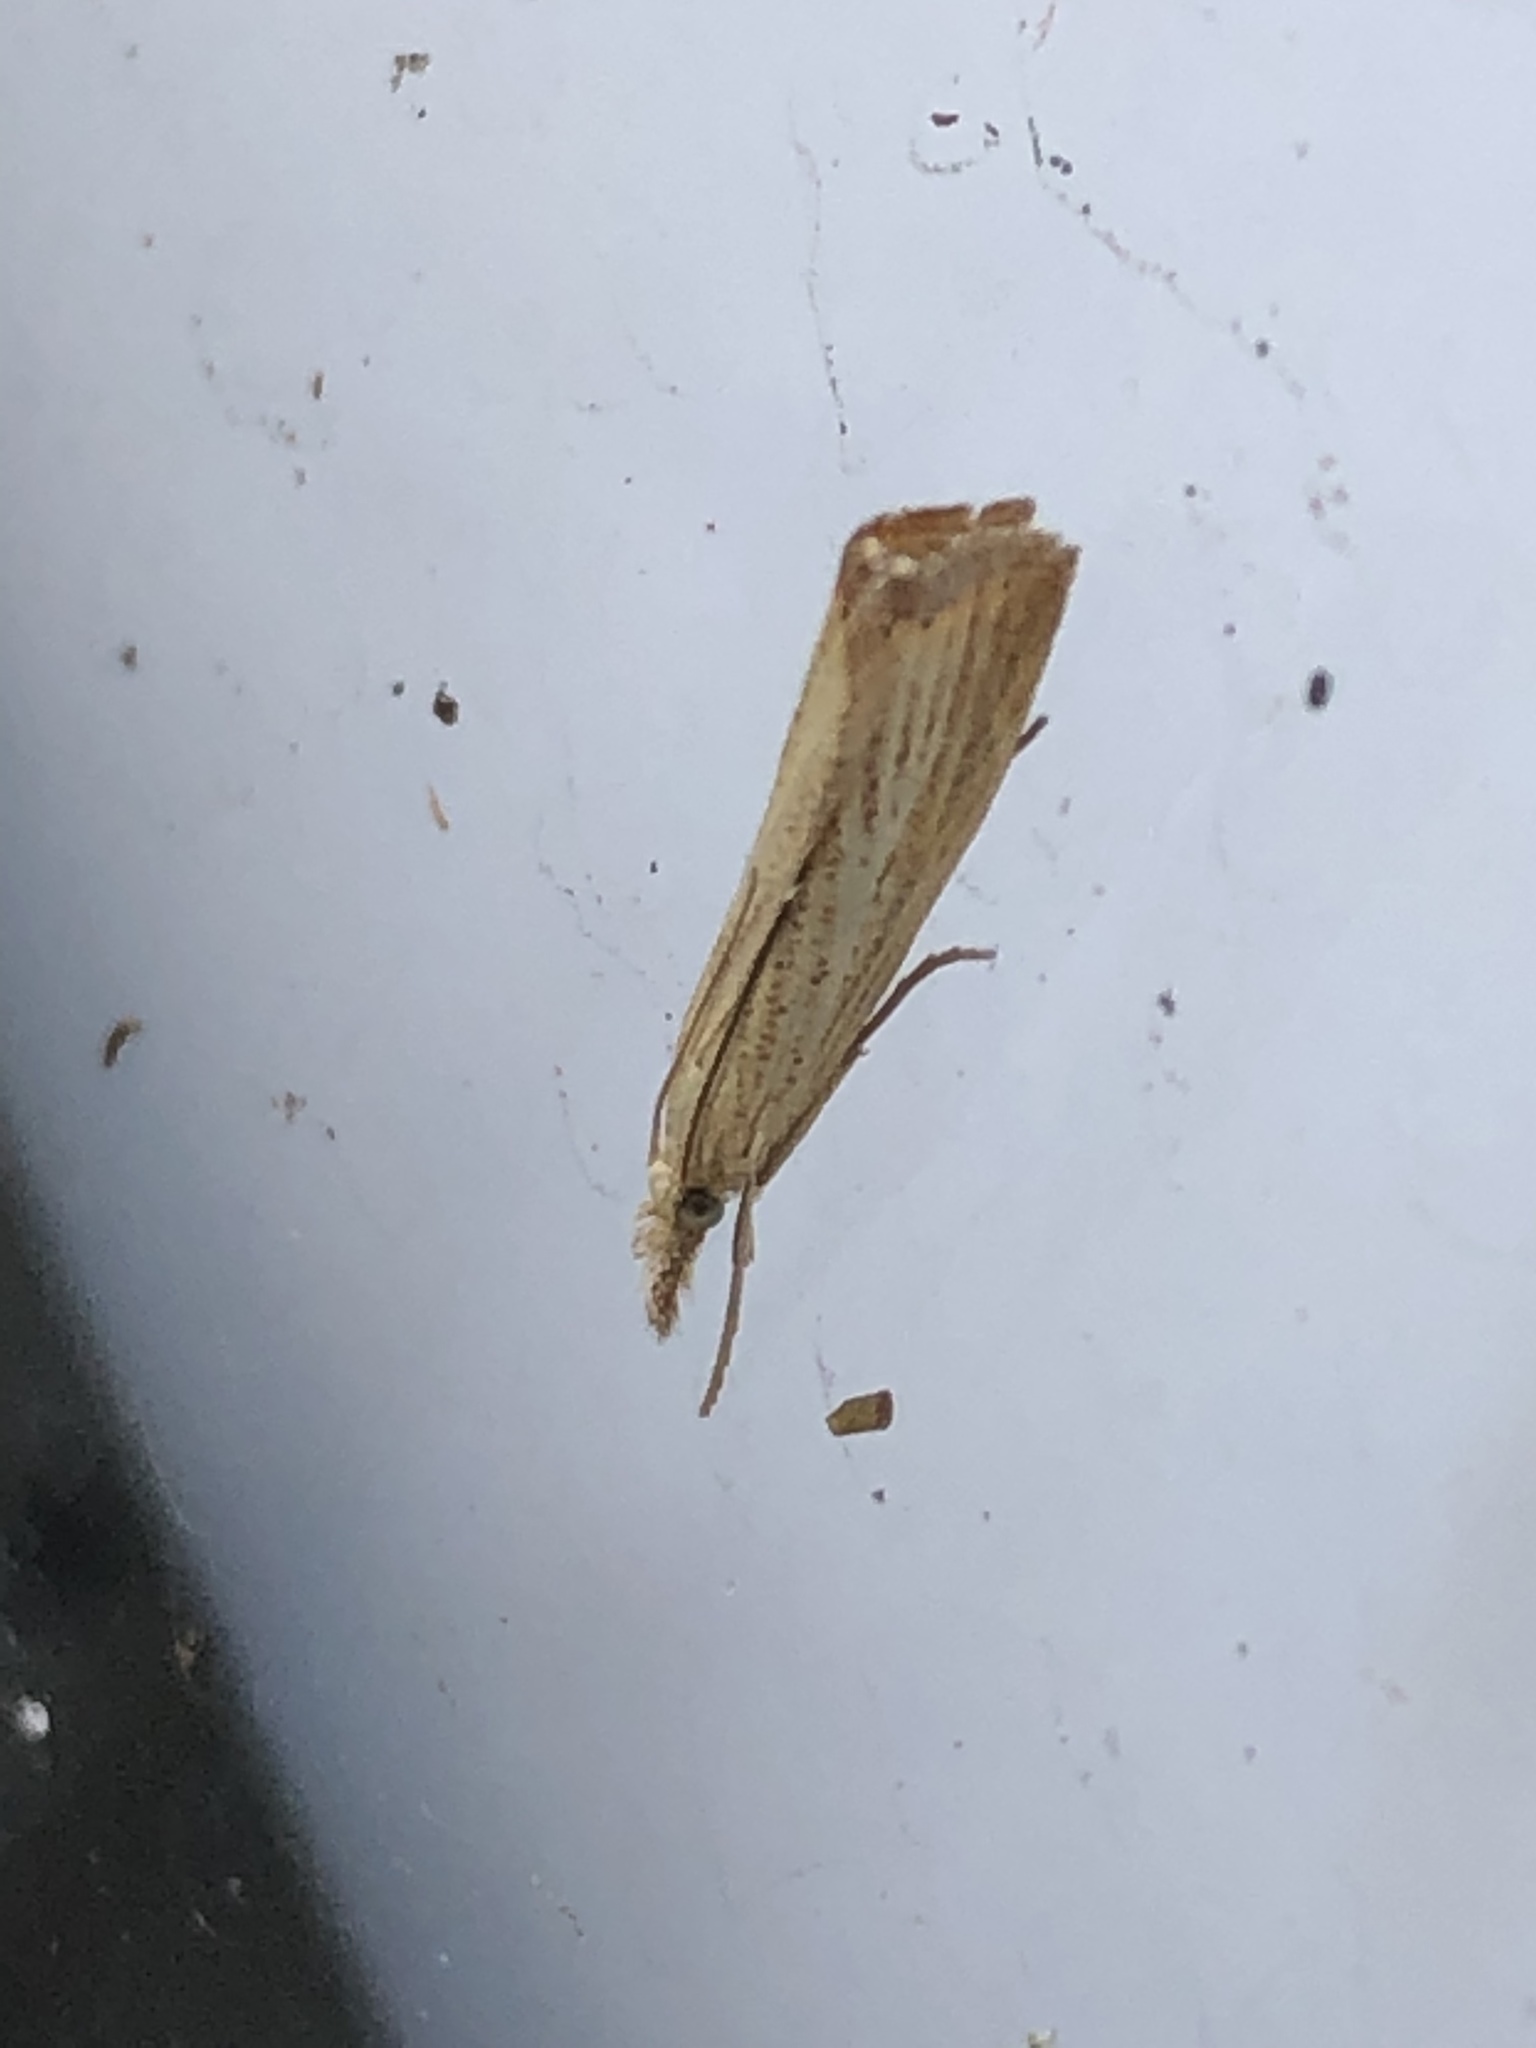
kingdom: Animalia
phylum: Arthropoda
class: Insecta
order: Lepidoptera
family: Crambidae
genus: Agriphila
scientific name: Agriphila straminella
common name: Straw grass-veneer
